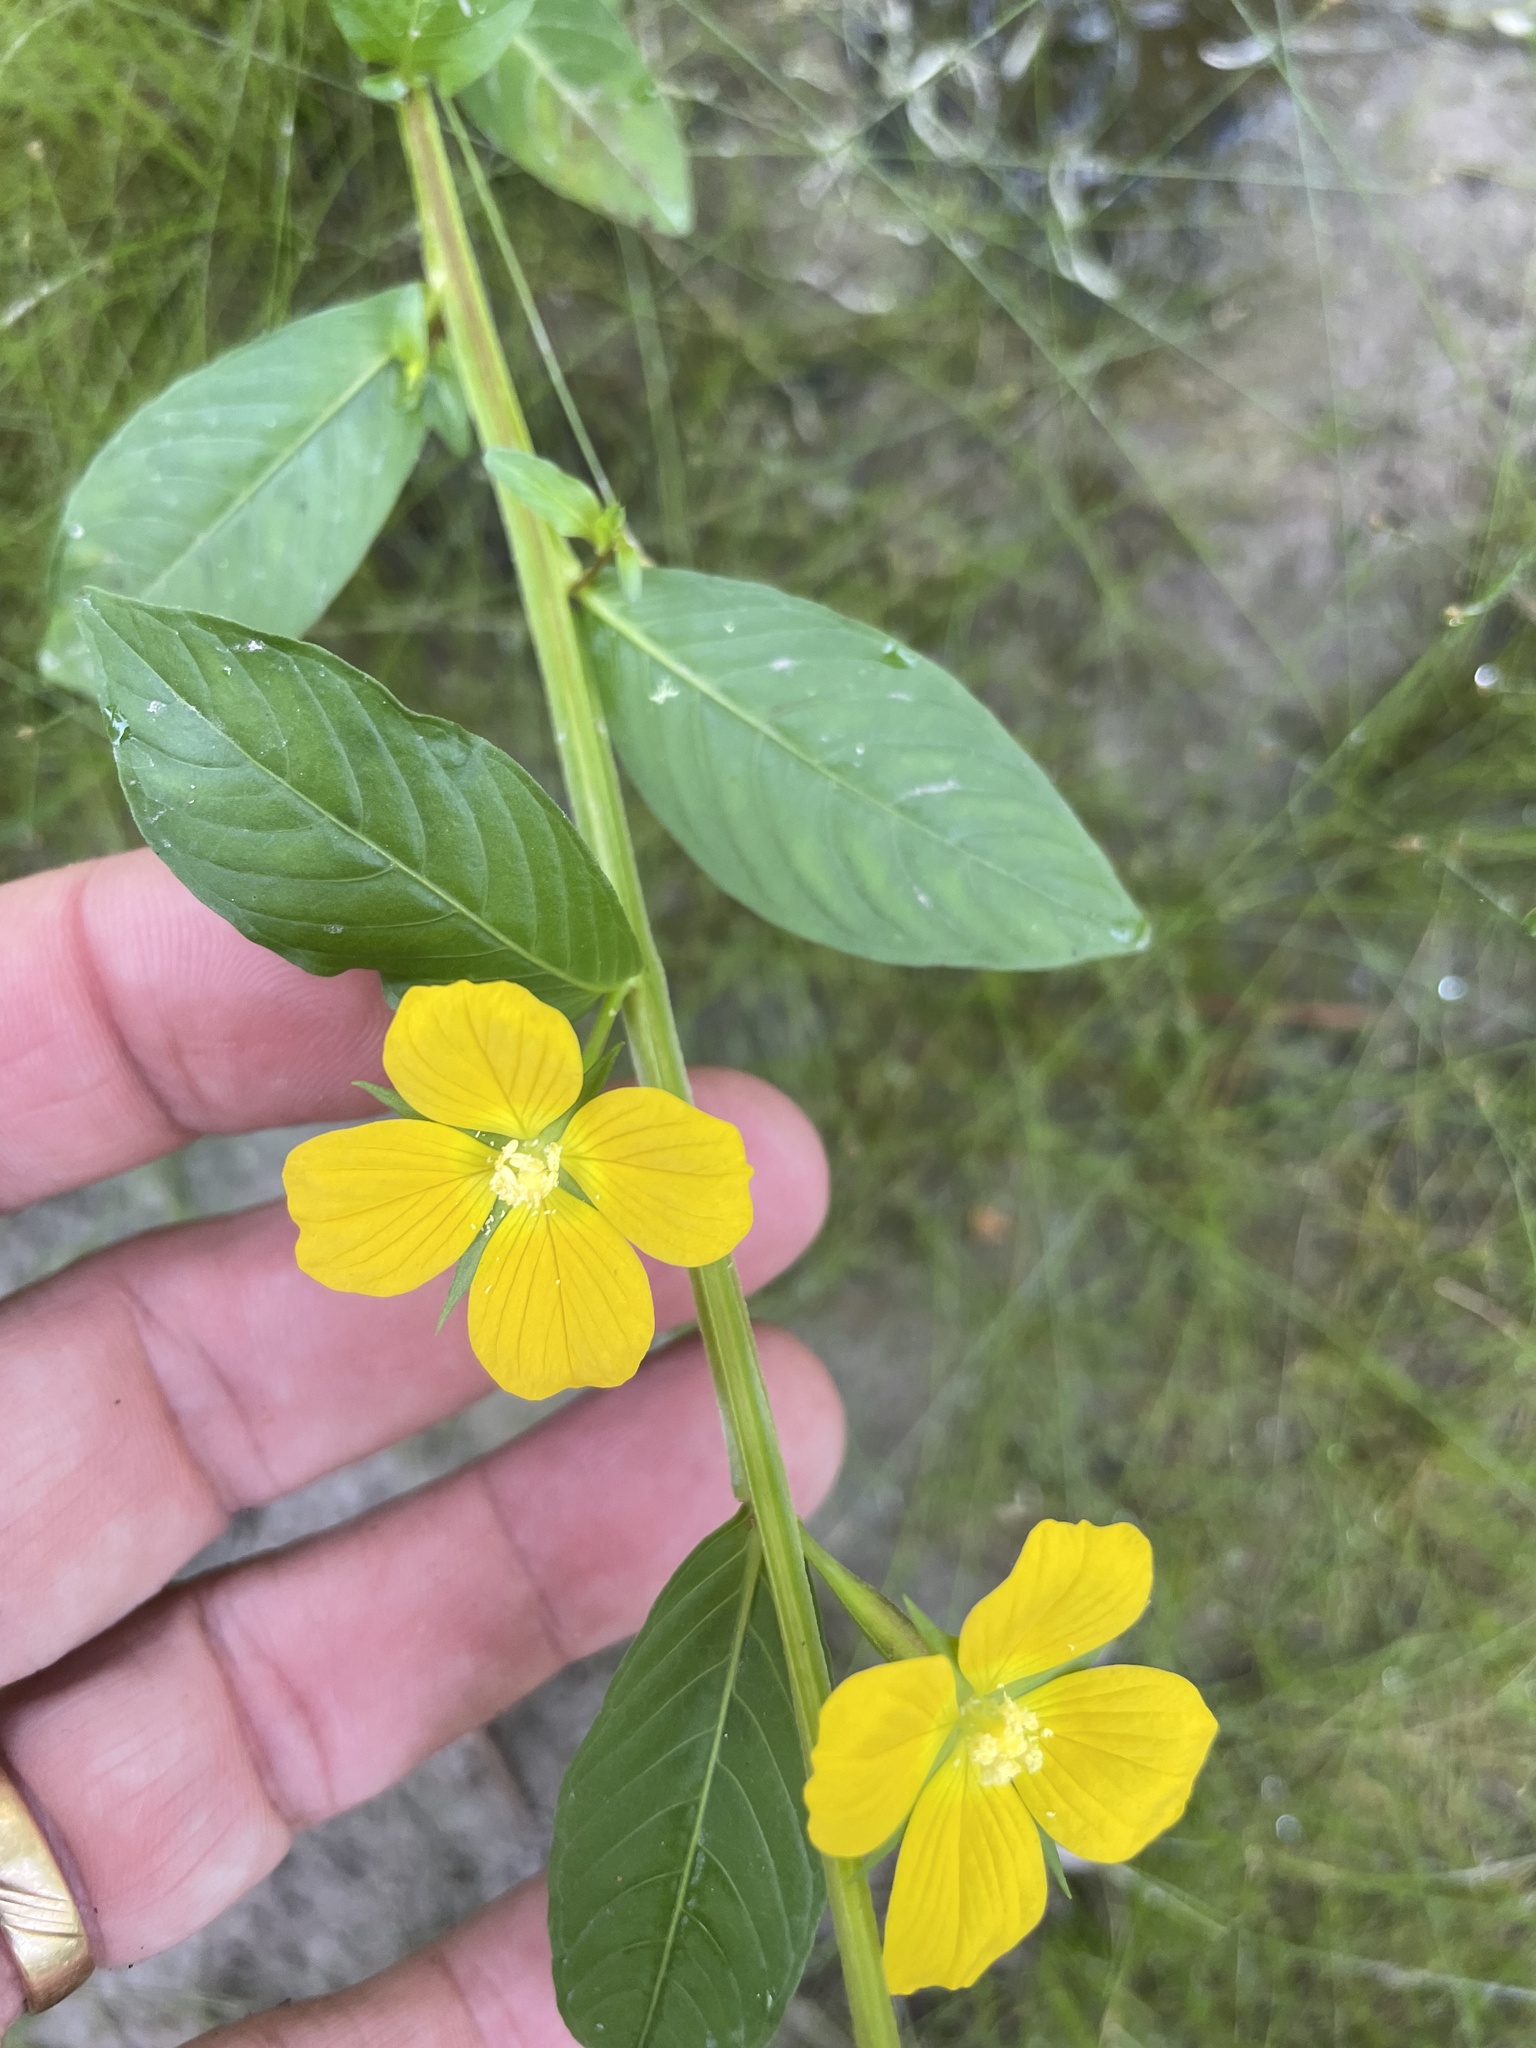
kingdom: Plantae
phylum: Tracheophyta
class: Magnoliopsida
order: Myrtales
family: Onagraceae
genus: Ludwigia
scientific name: Ludwigia decurrens
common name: Winged water-primrose
